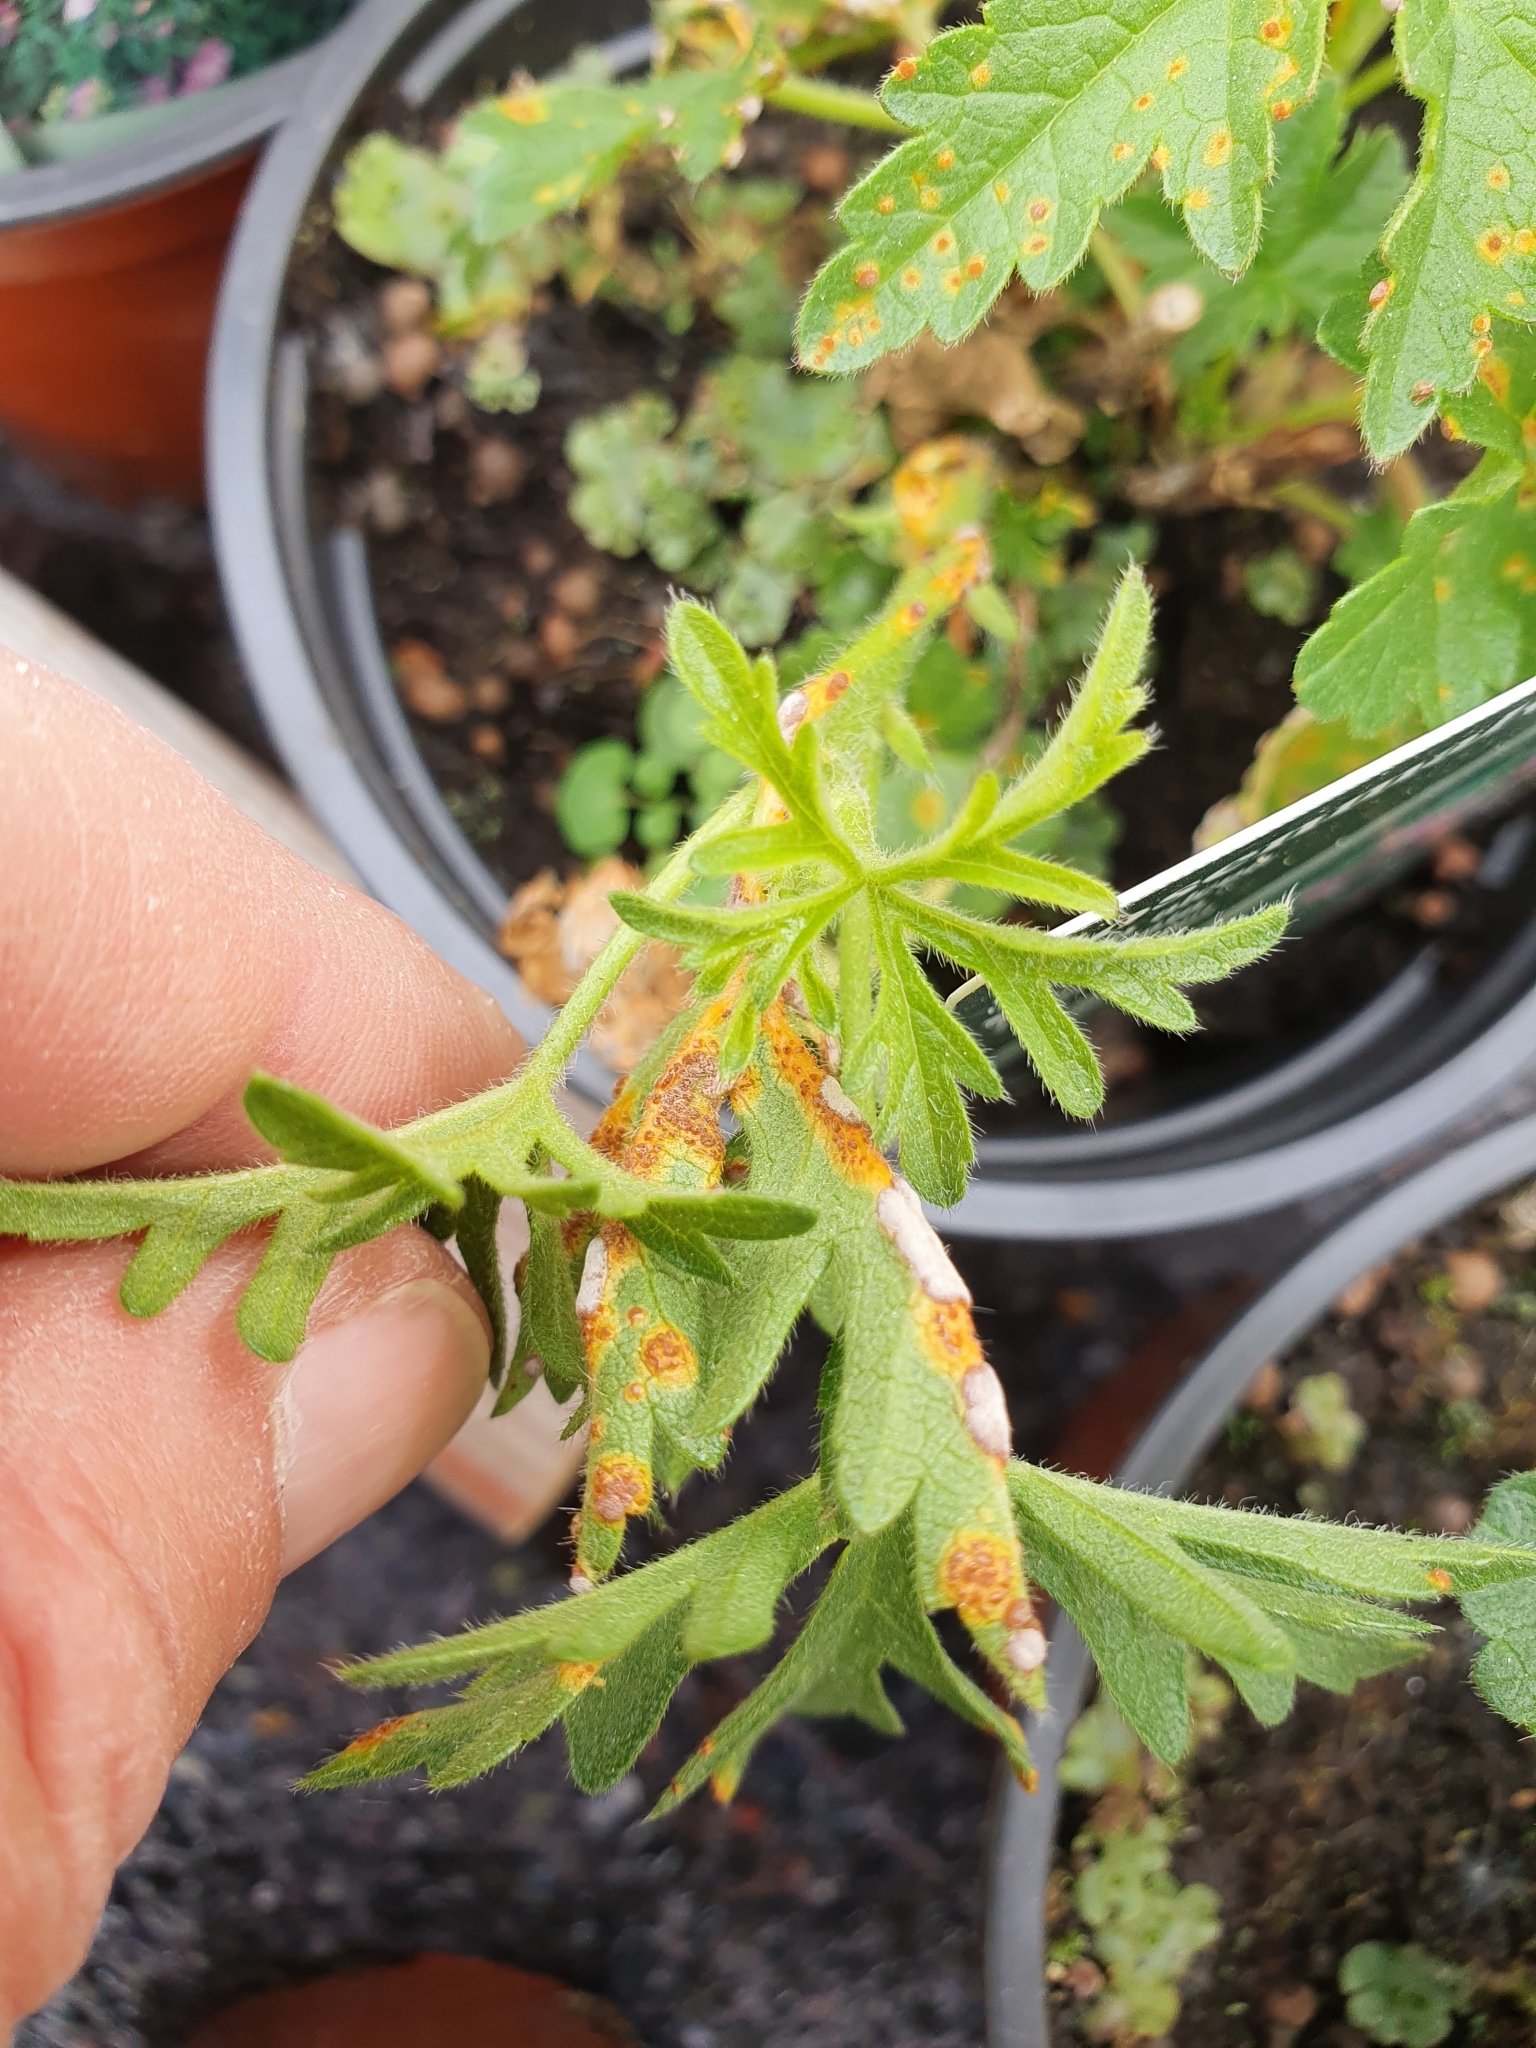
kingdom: Fungi
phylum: Basidiomycota
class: Pucciniomycetes
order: Pucciniales
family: Pucciniaceae
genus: Puccinia
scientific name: Puccinia malvacearum
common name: Hollyhock rust
